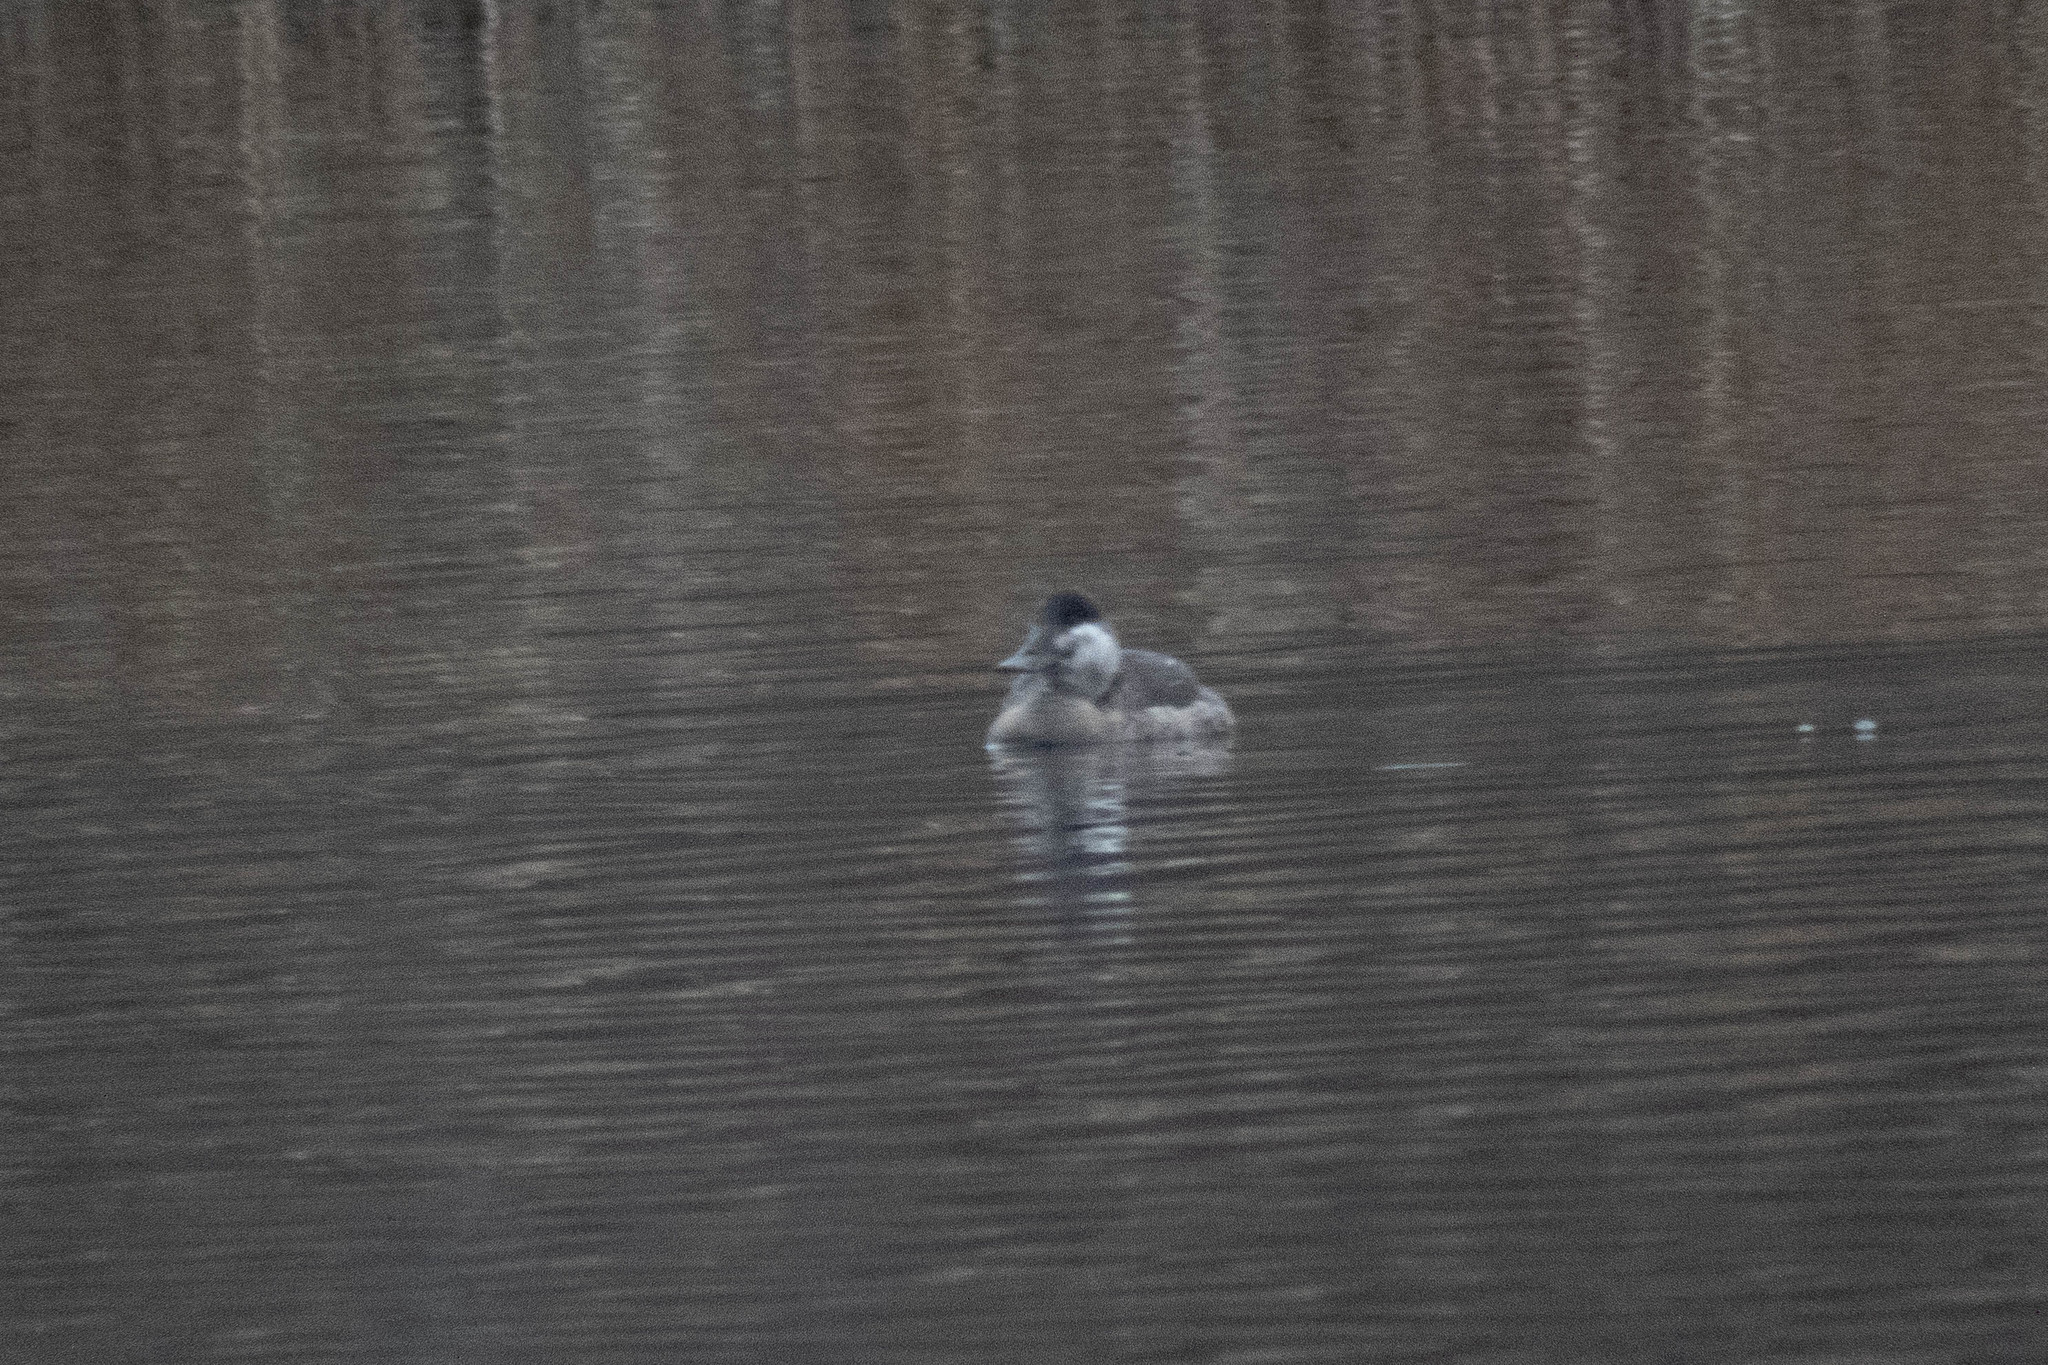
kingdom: Animalia
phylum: Chordata
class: Aves
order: Anseriformes
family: Anatidae
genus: Oxyura
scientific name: Oxyura jamaicensis
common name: Ruddy duck
